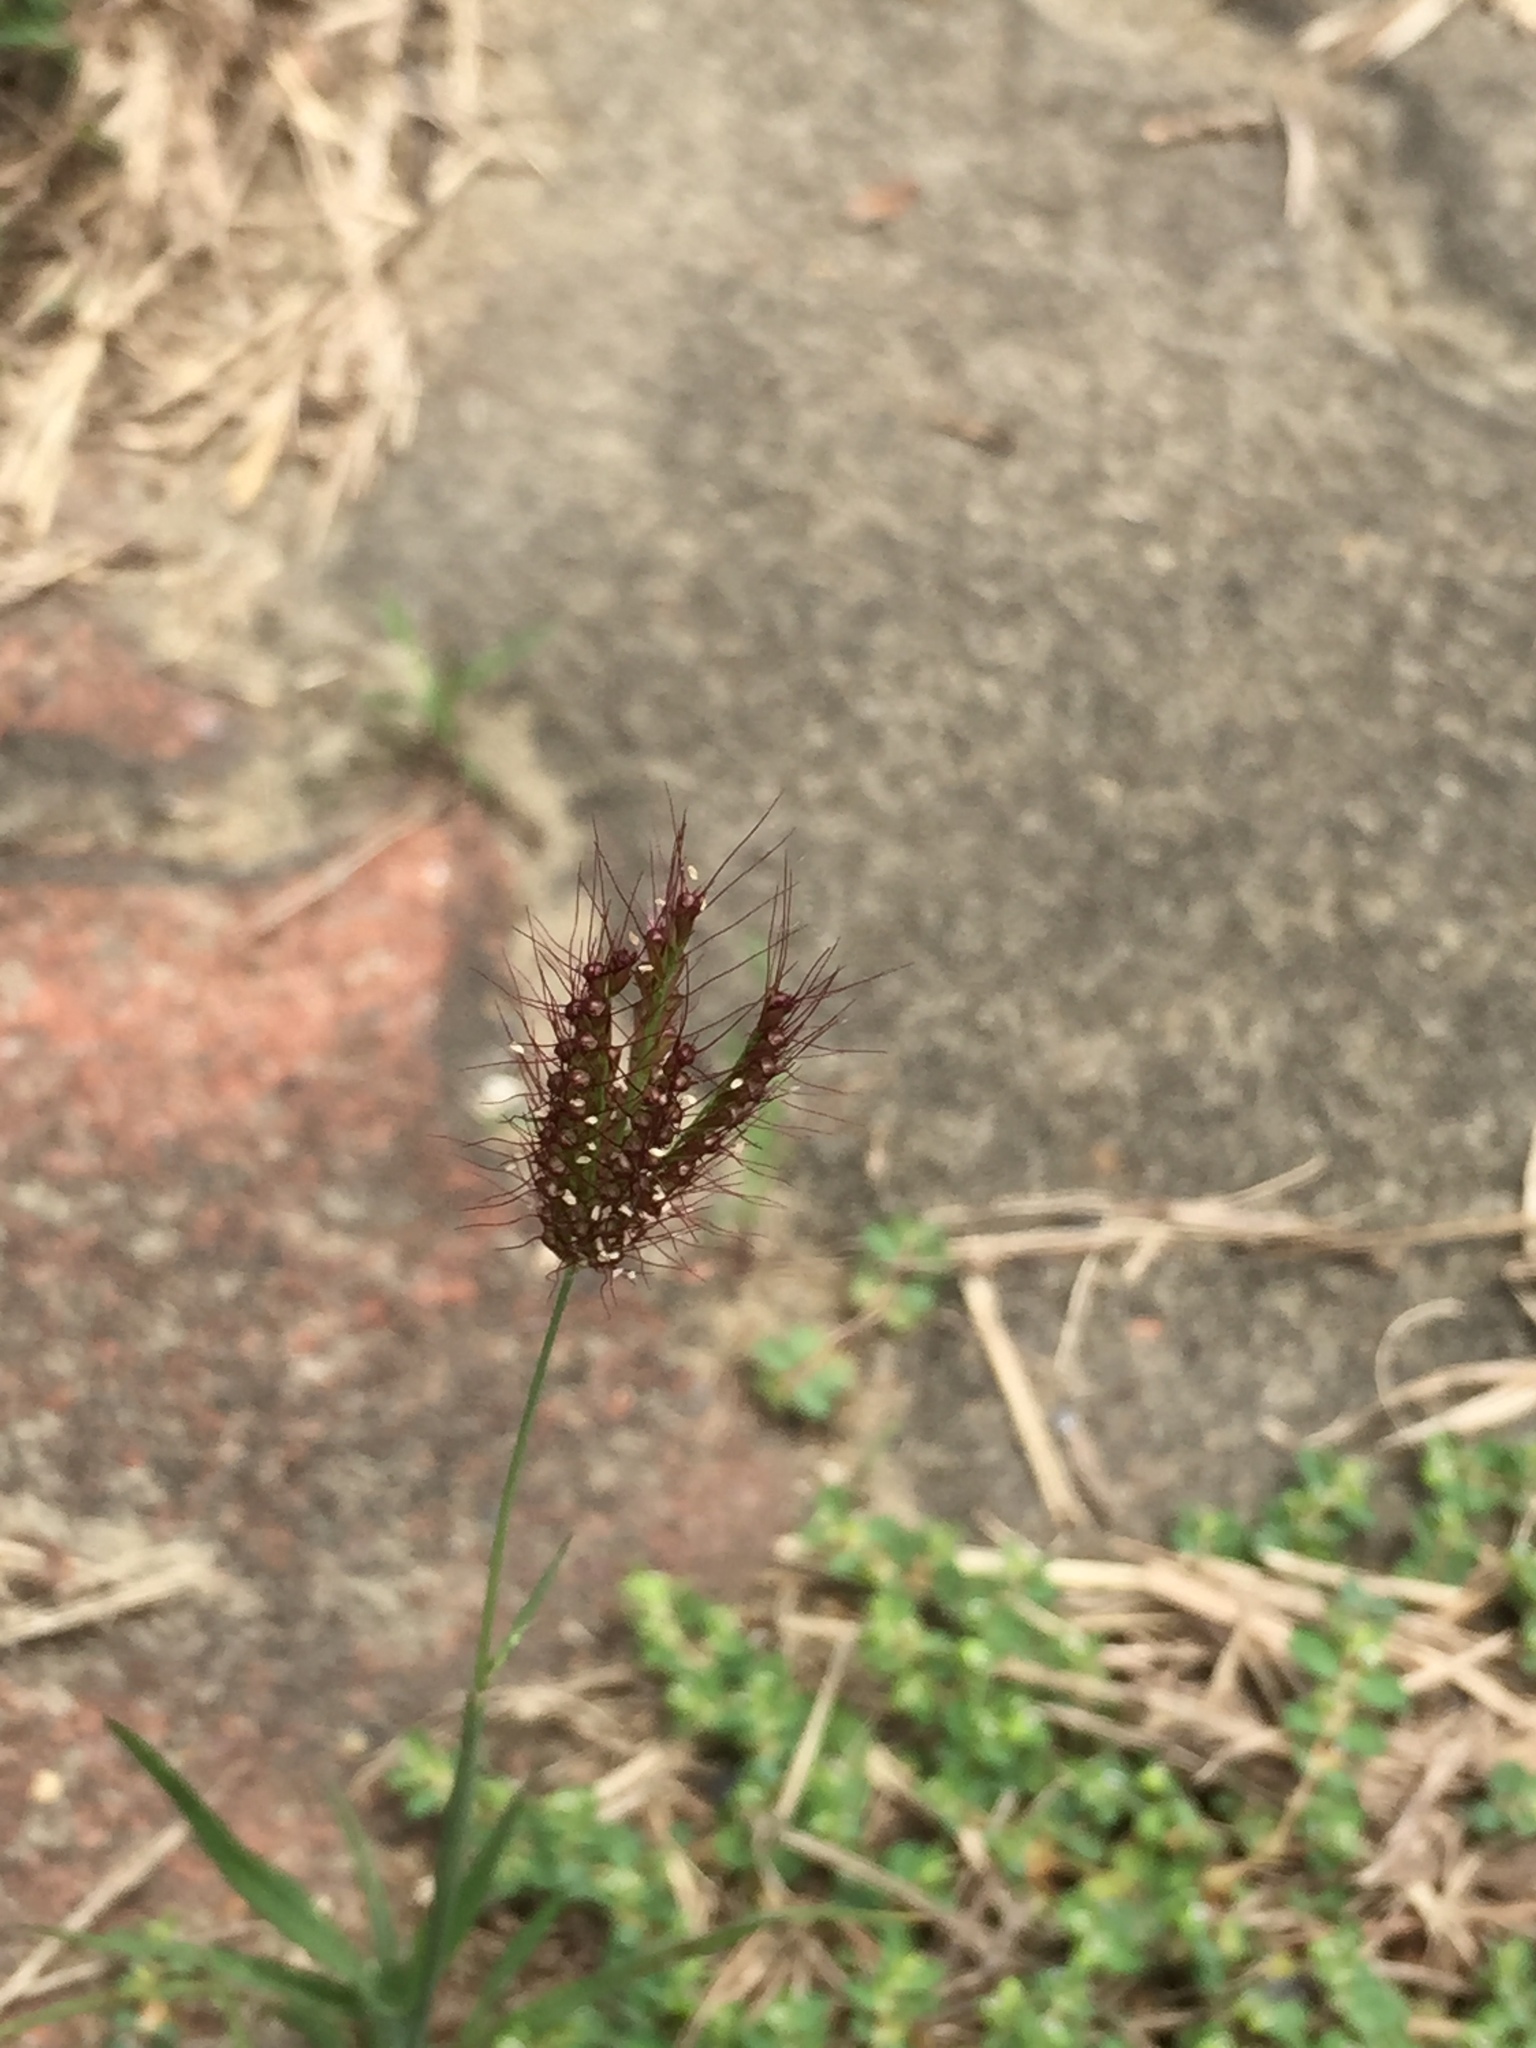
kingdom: Plantae
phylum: Tracheophyta
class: Liliopsida
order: Poales
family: Poaceae
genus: Chloris
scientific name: Chloris barbata
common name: Swollen fingergrass
